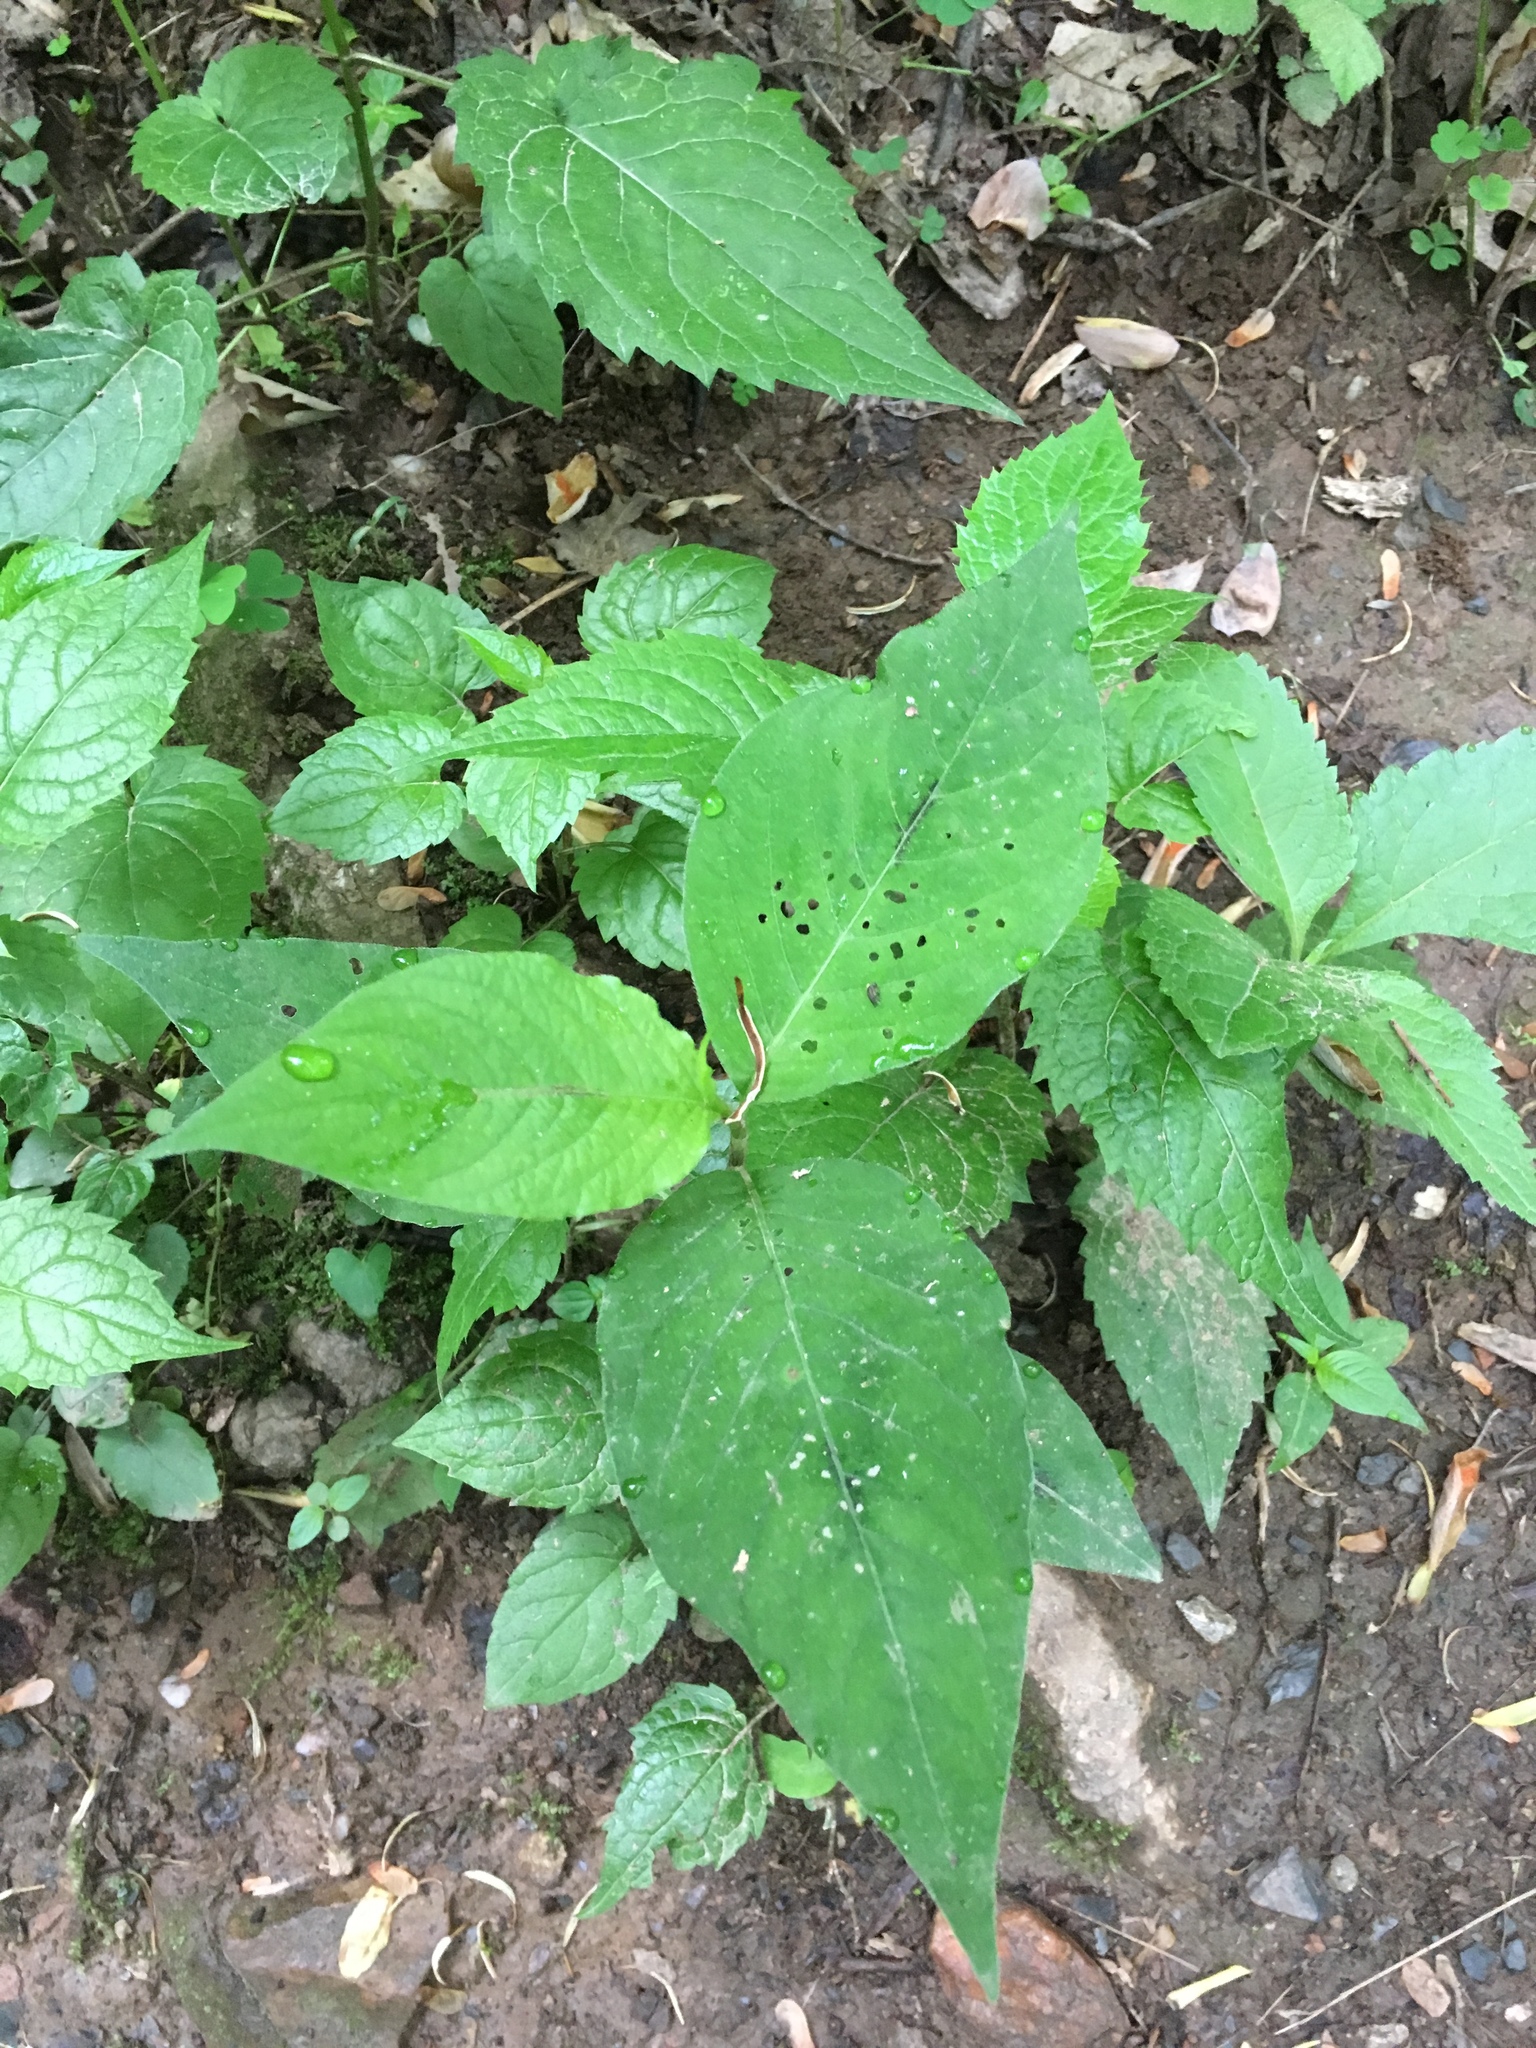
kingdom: Plantae
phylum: Tracheophyta
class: Magnoliopsida
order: Caryophyllales
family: Polygonaceae
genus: Persicaria
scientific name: Persicaria virginiana
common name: Jumpseed
